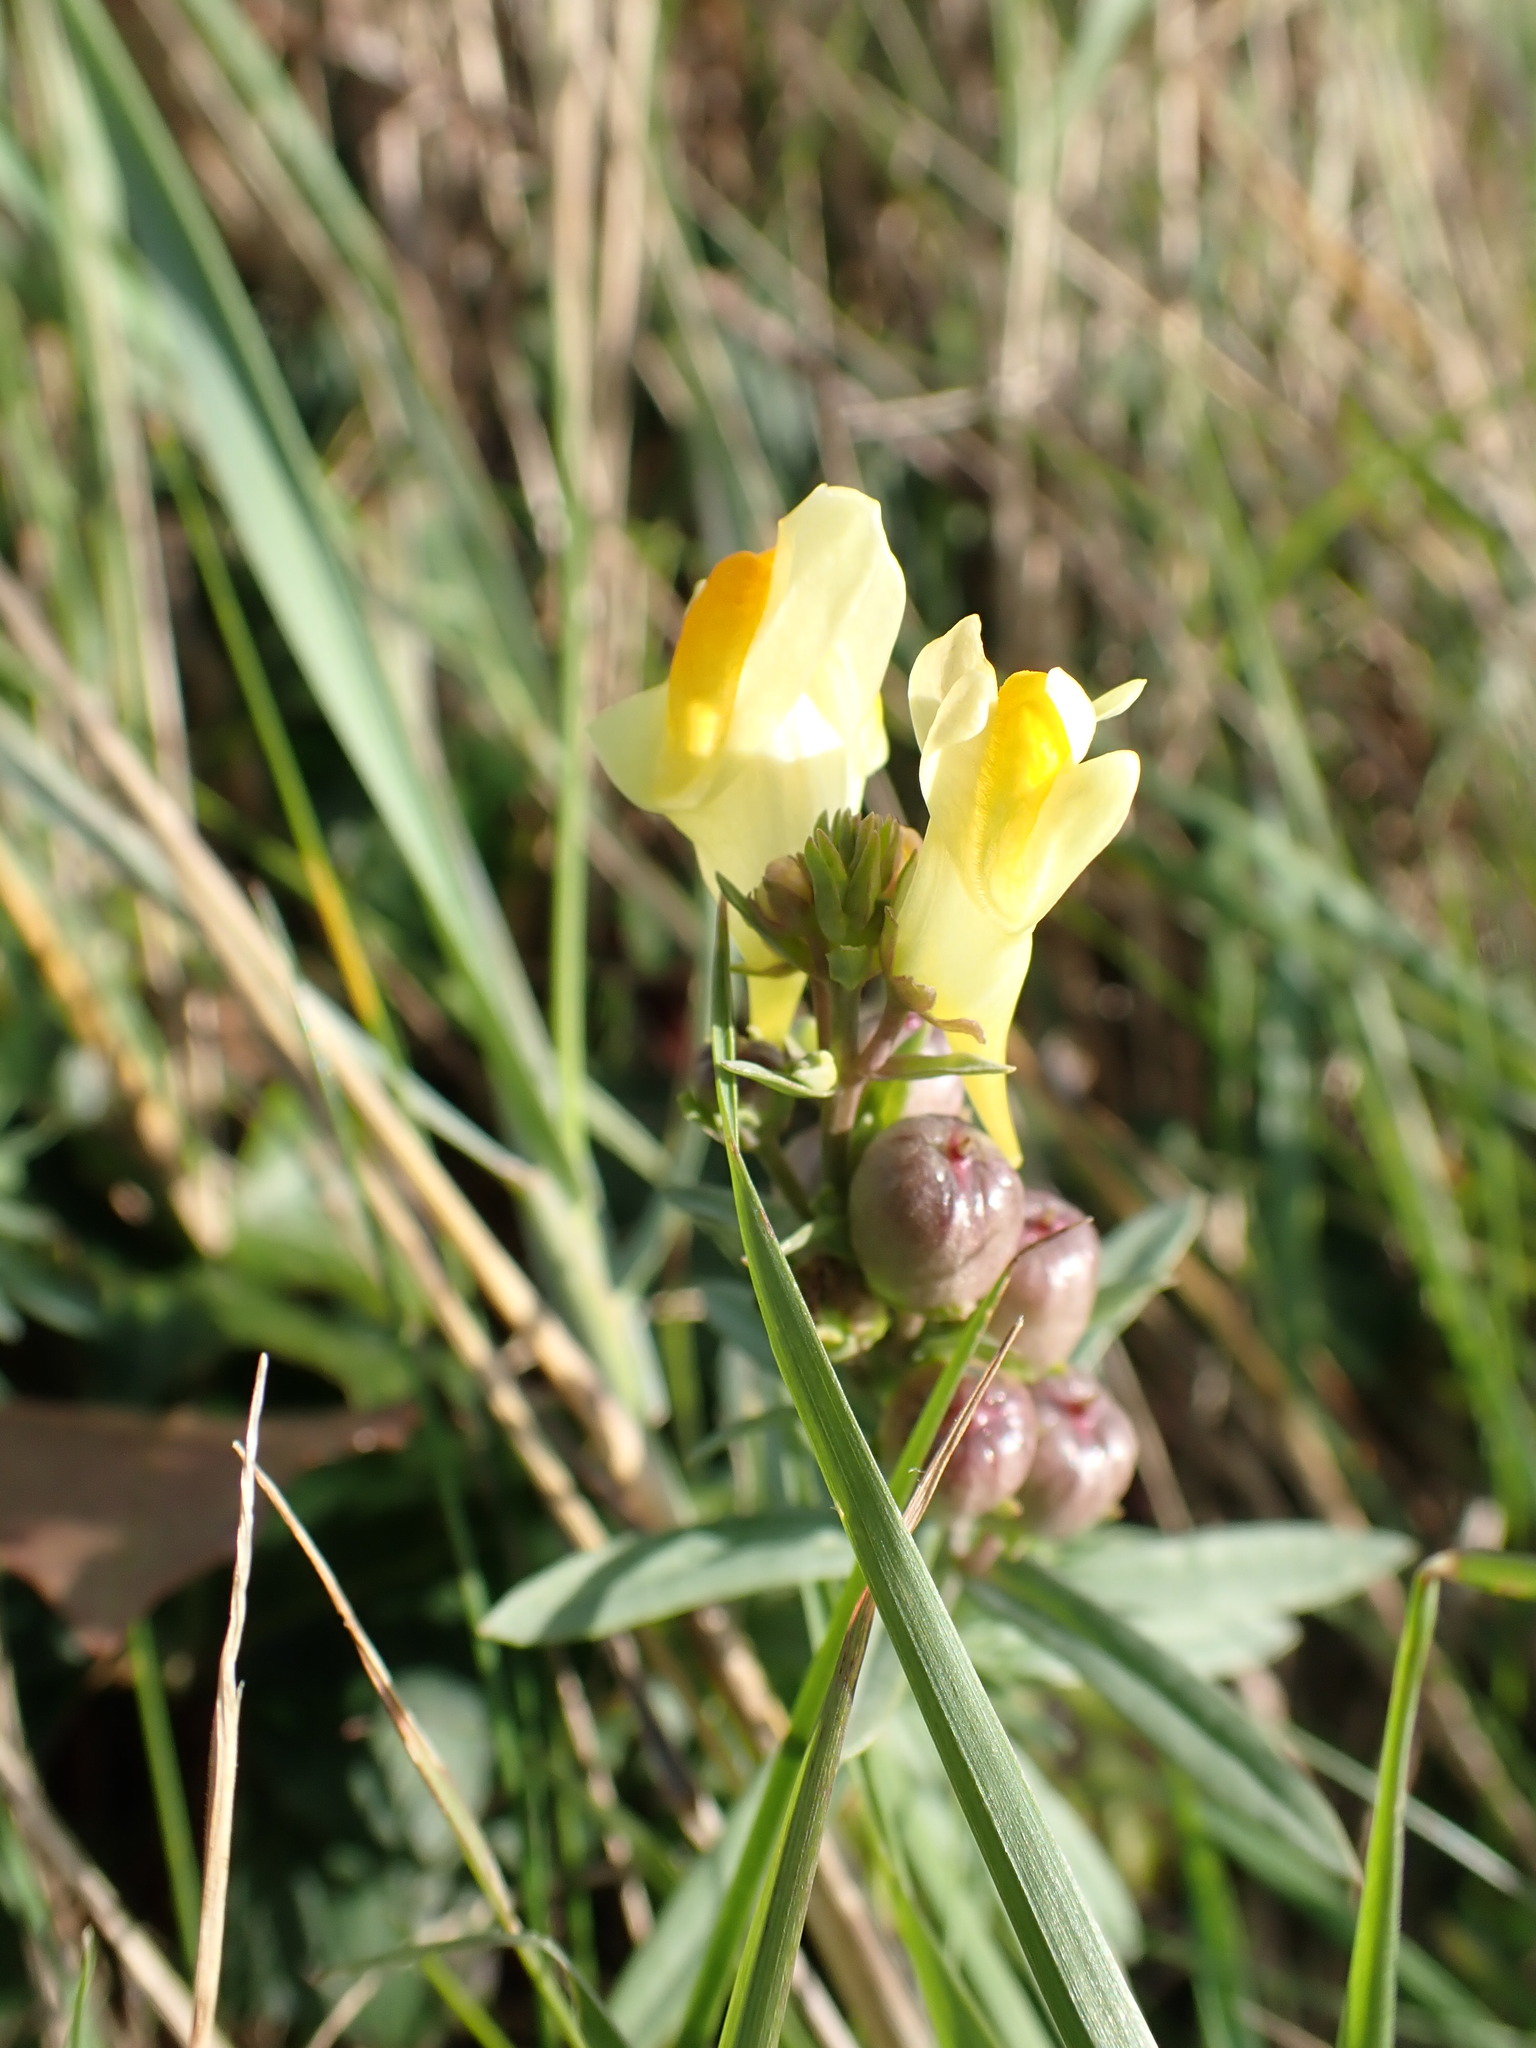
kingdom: Plantae
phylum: Tracheophyta
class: Magnoliopsida
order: Lamiales
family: Plantaginaceae
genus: Linaria
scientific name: Linaria vulgaris
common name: Butter and eggs
